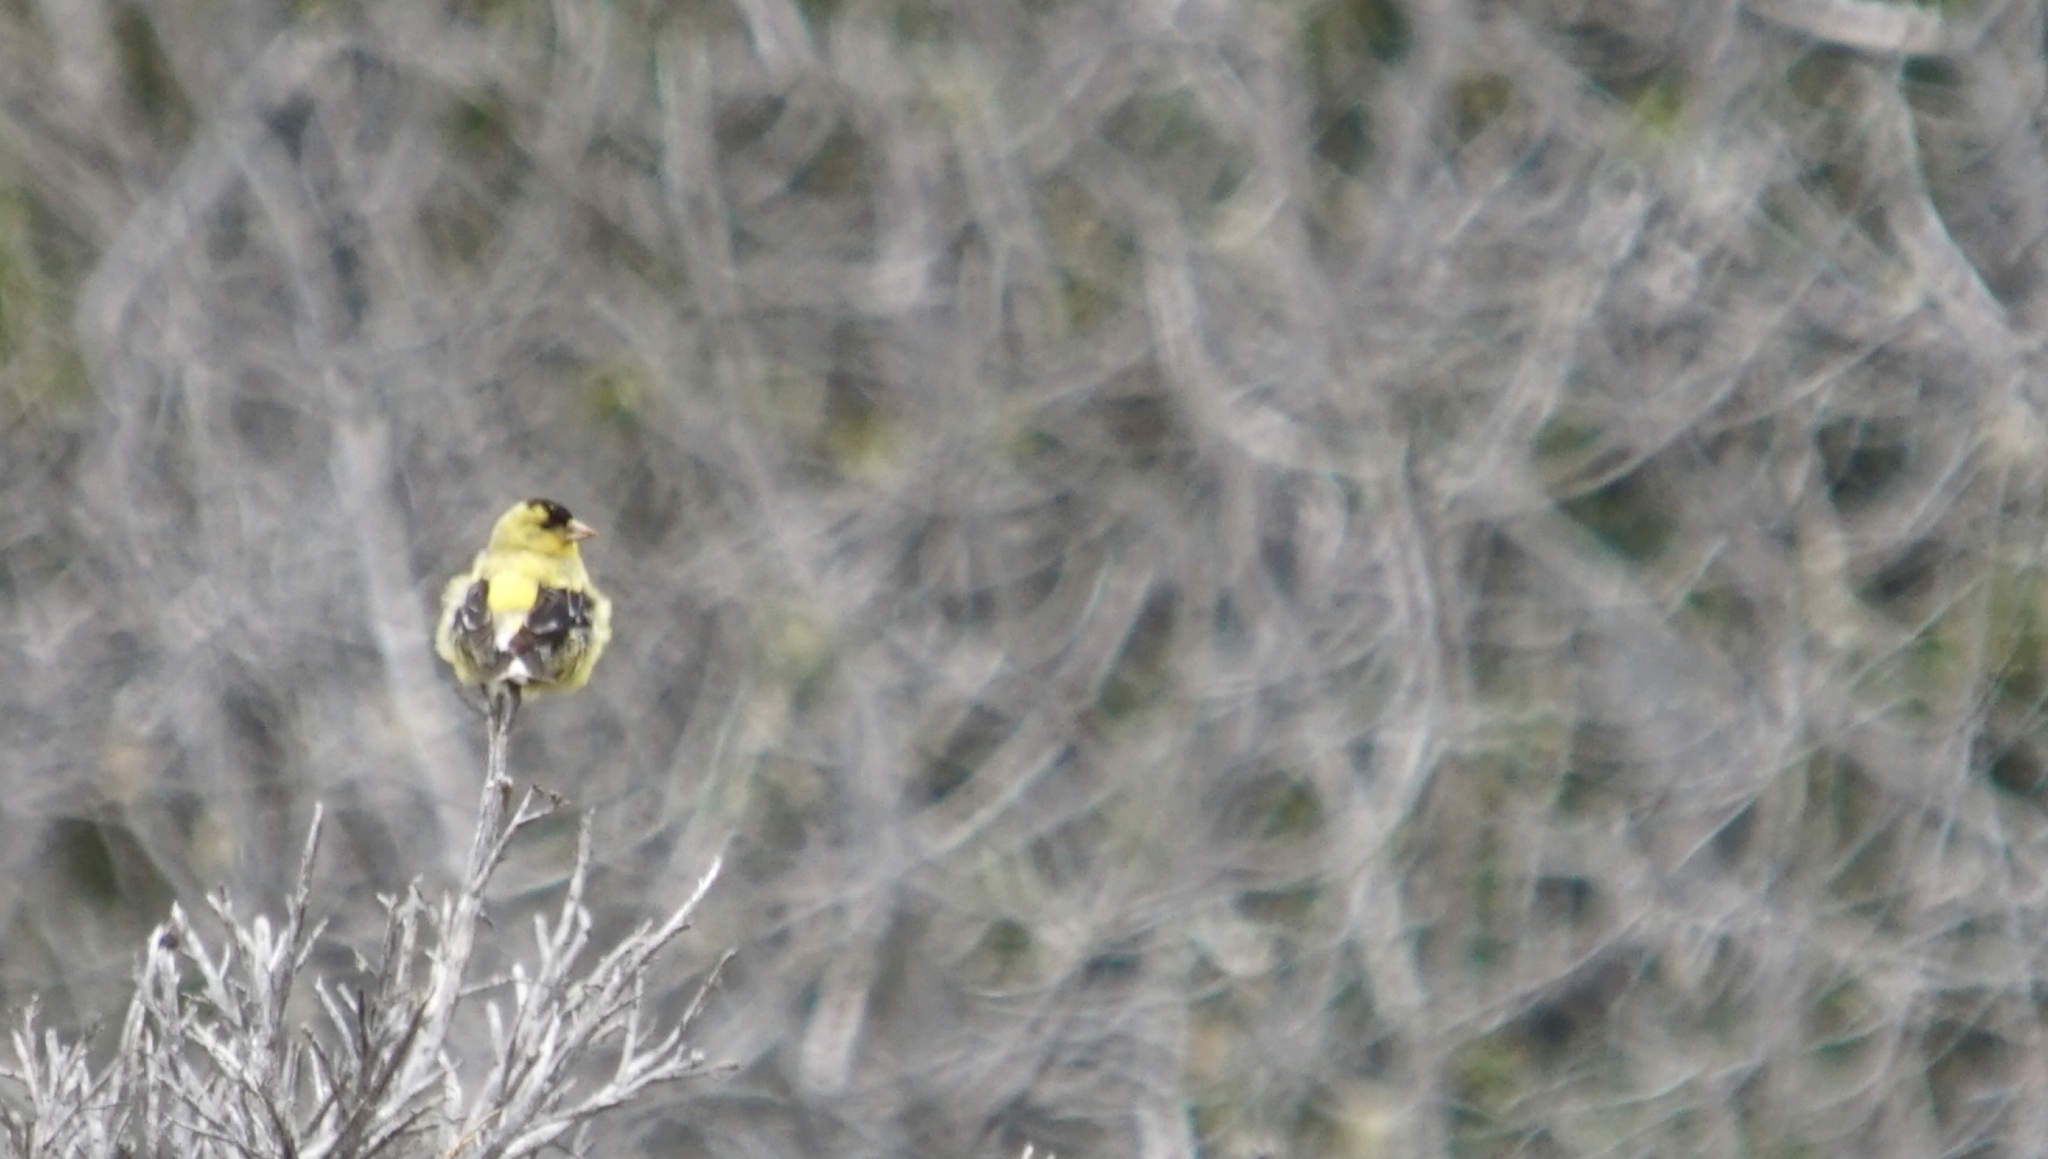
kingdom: Animalia
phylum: Chordata
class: Aves
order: Passeriformes
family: Fringillidae
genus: Spinus
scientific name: Spinus tristis
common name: American goldfinch
